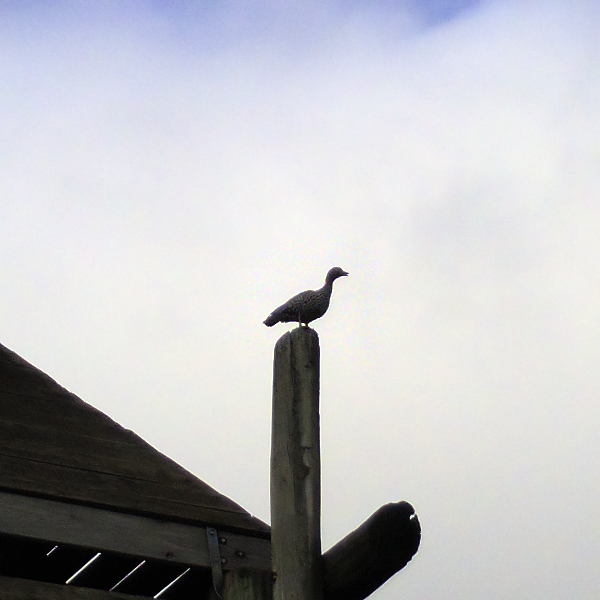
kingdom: Animalia
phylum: Chordata
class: Aves
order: Anseriformes
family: Anatidae
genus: Chenonetta
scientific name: Chenonetta jubata
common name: Maned duck
